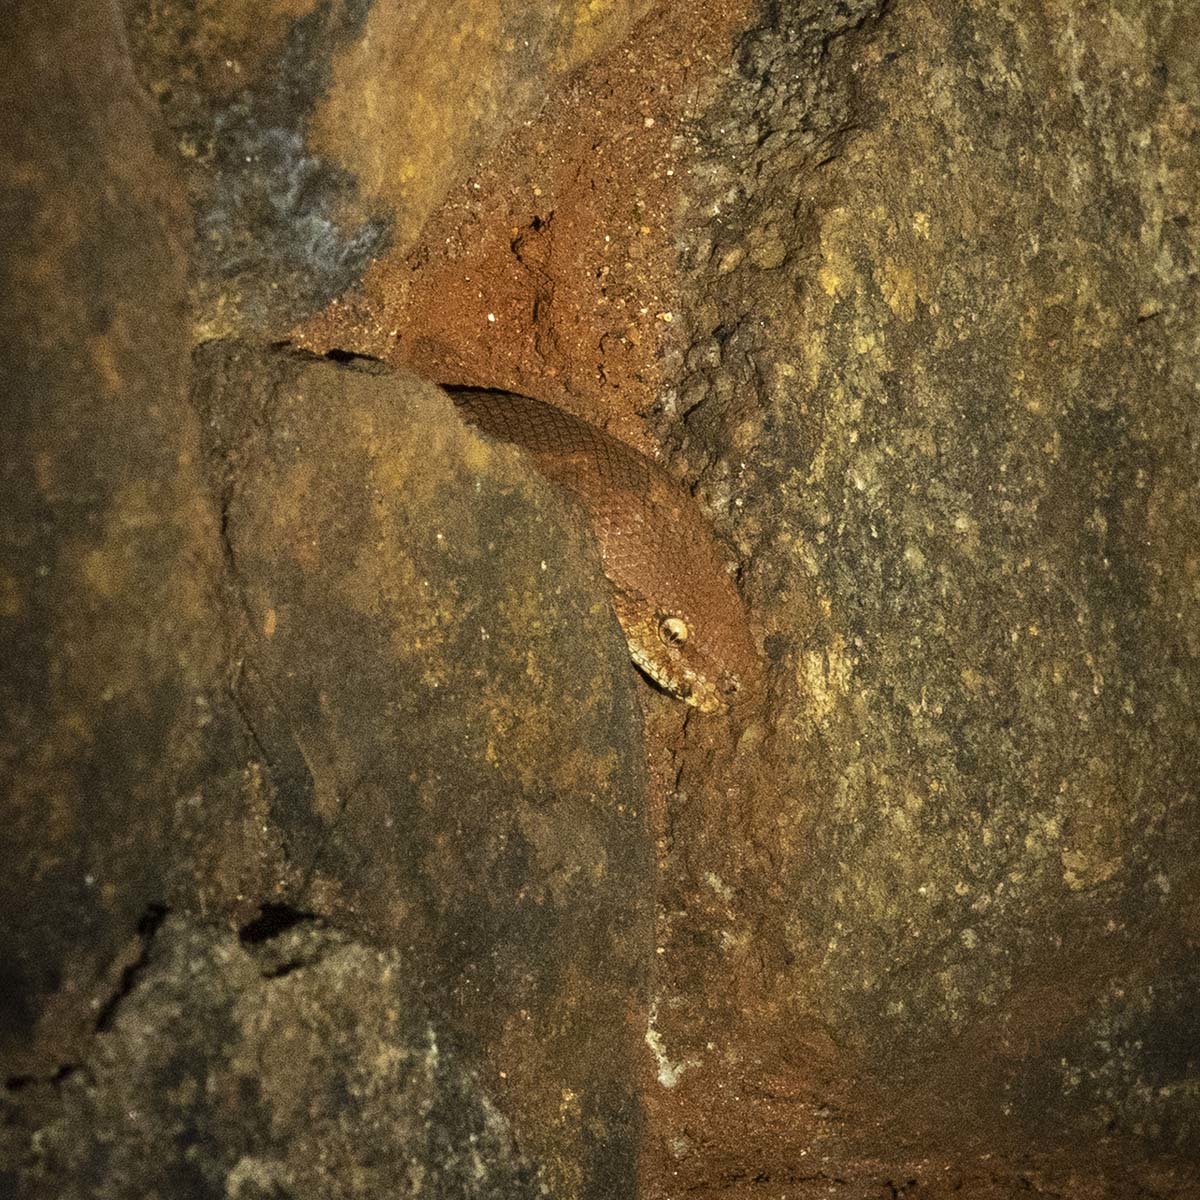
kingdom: Animalia
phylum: Chordata
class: Squamata
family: Boidae
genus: Eryx
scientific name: Eryx conicus
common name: Rough-tailed sand boa
